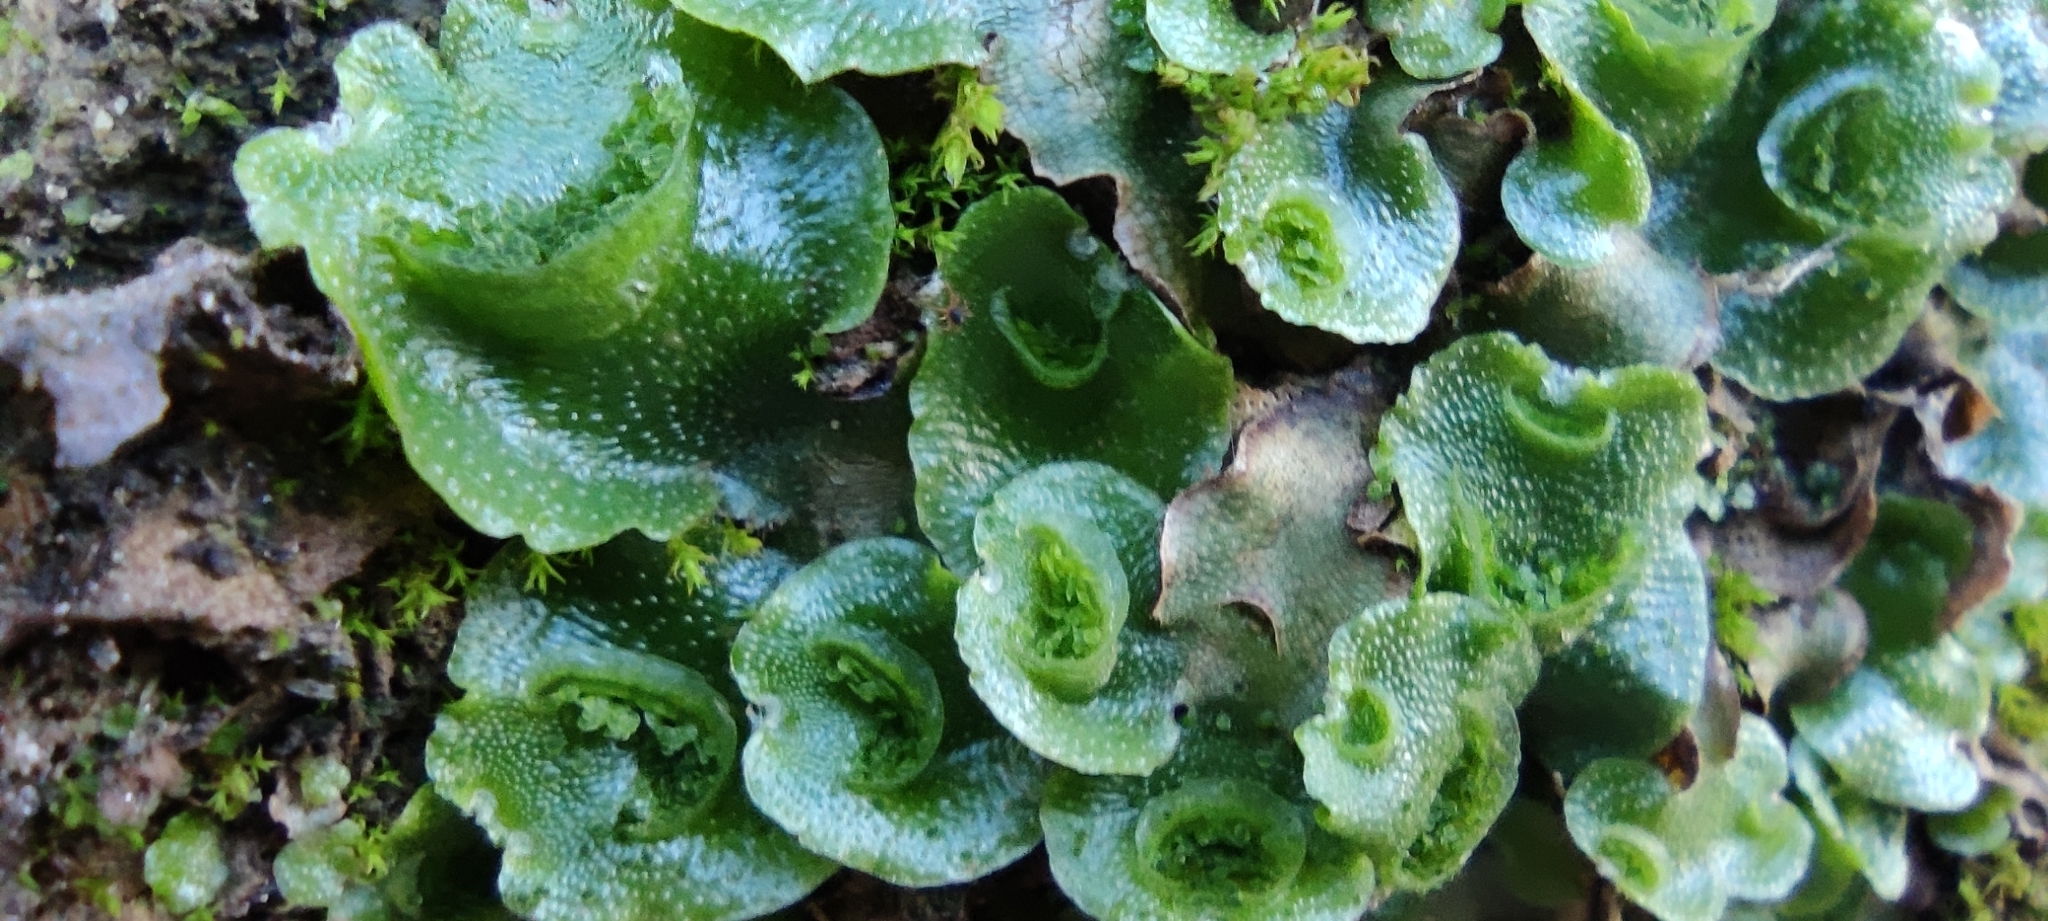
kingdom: Plantae
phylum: Marchantiophyta
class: Marchantiopsida
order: Lunulariales
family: Lunulariaceae
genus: Lunularia
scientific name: Lunularia cruciata
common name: Crescent-cup liverwort
